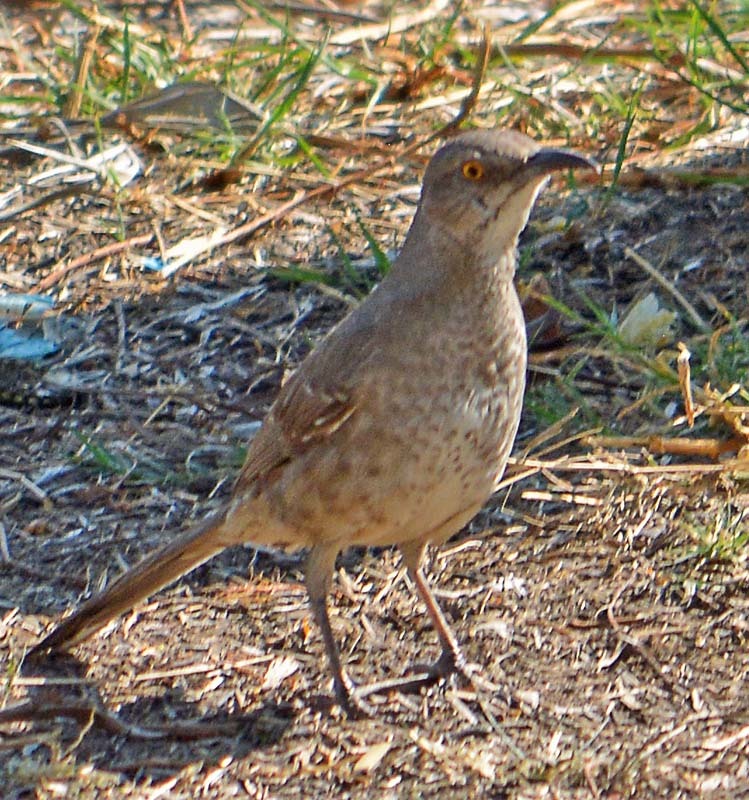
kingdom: Animalia
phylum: Chordata
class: Aves
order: Passeriformes
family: Mimidae
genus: Toxostoma
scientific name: Toxostoma curvirostre
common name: Curve-billed thrasher
